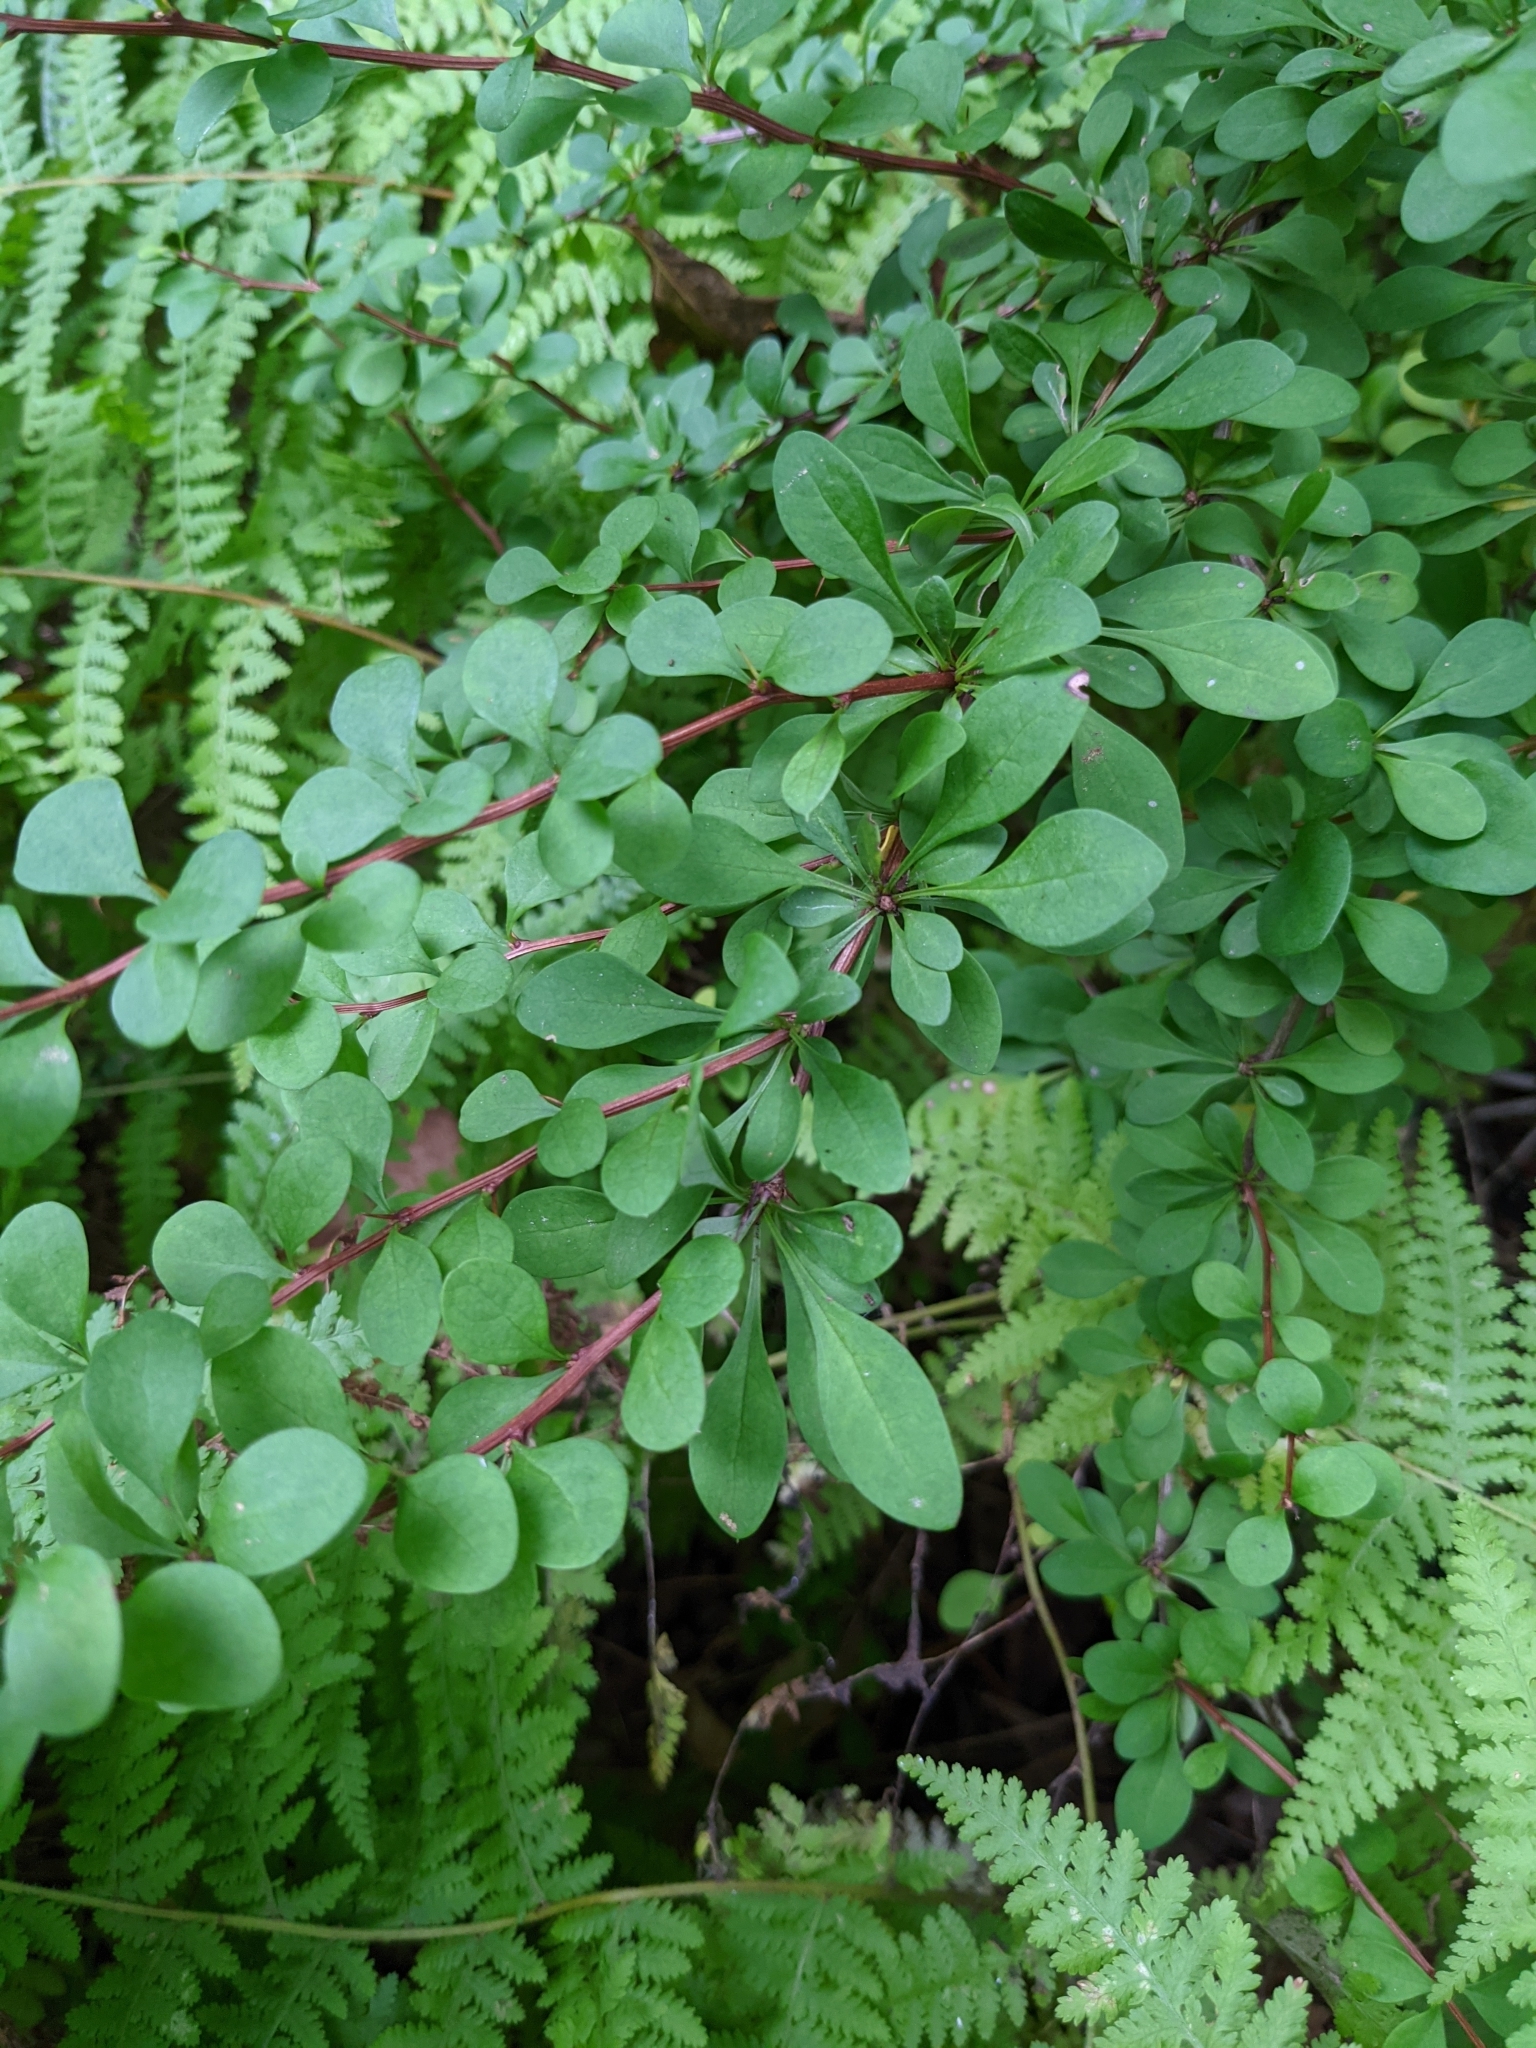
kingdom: Plantae
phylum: Tracheophyta
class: Magnoliopsida
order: Ranunculales
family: Berberidaceae
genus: Berberis
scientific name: Berberis thunbergii
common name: Japanese barberry
